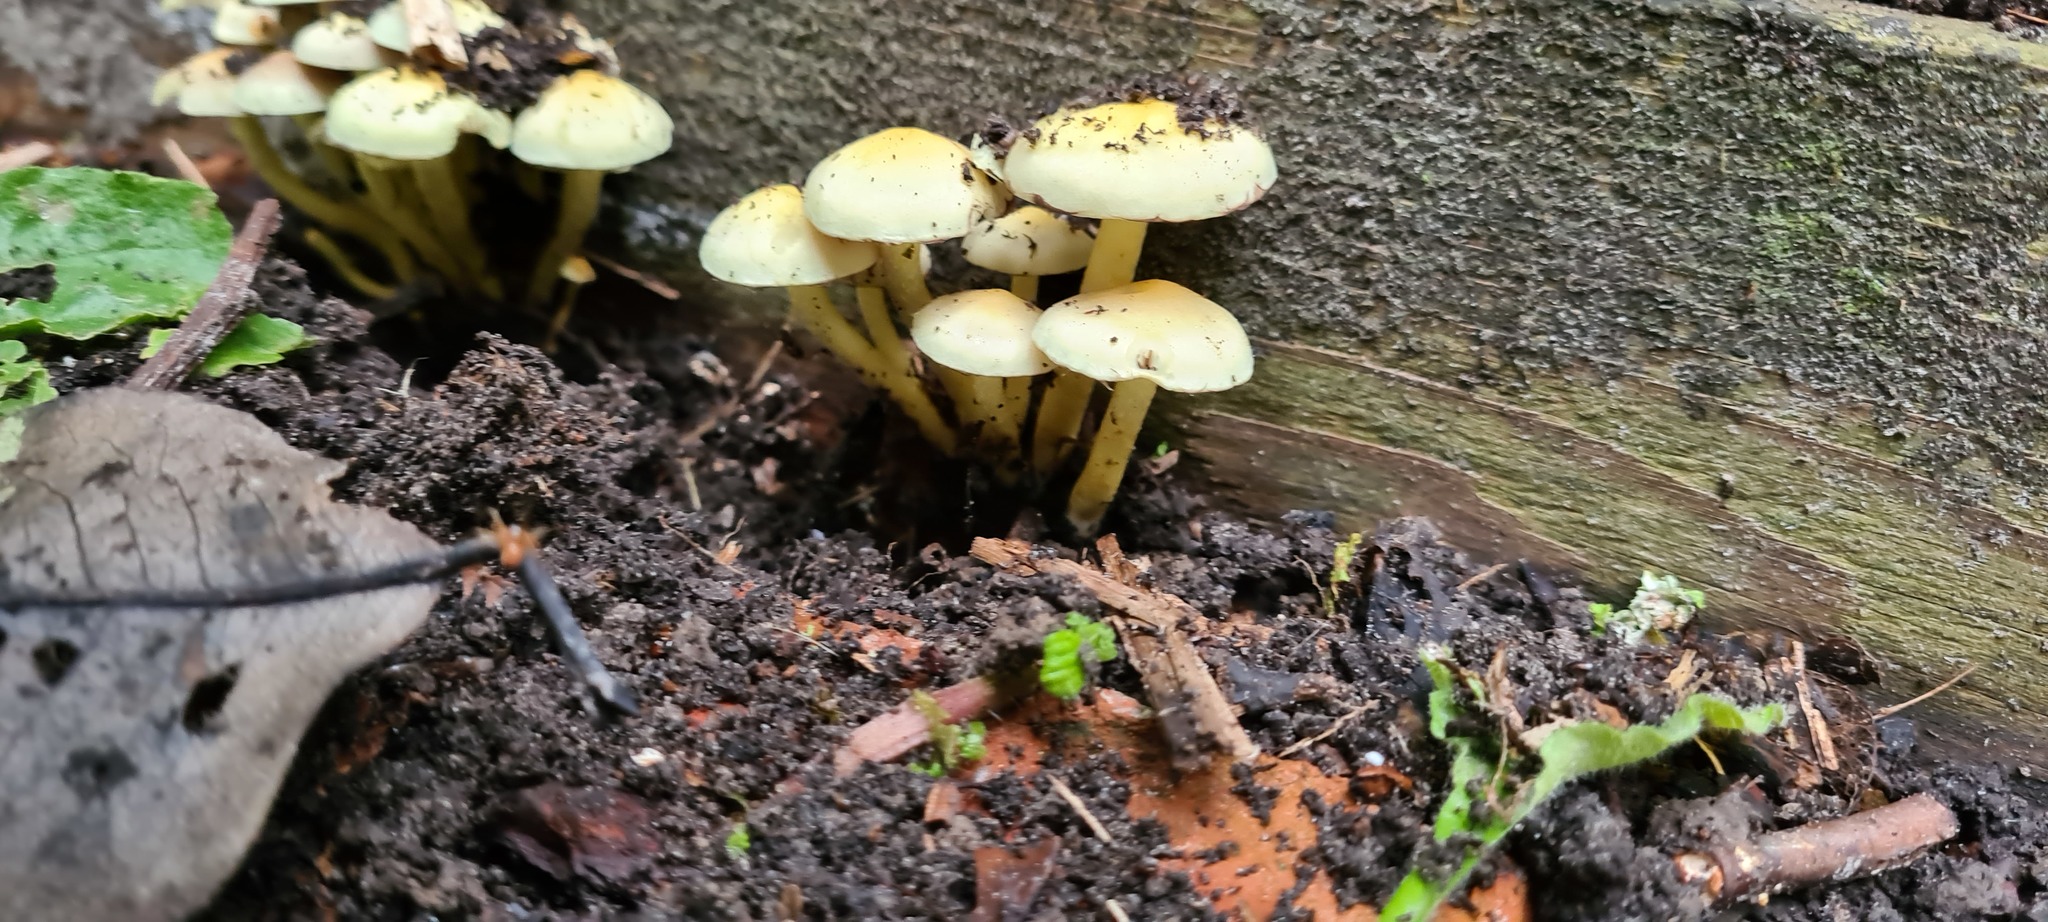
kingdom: Fungi
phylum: Basidiomycota
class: Agaricomycetes
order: Agaricales
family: Strophariaceae
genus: Hypholoma
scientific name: Hypholoma fasciculare
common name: Sulphur tuft
